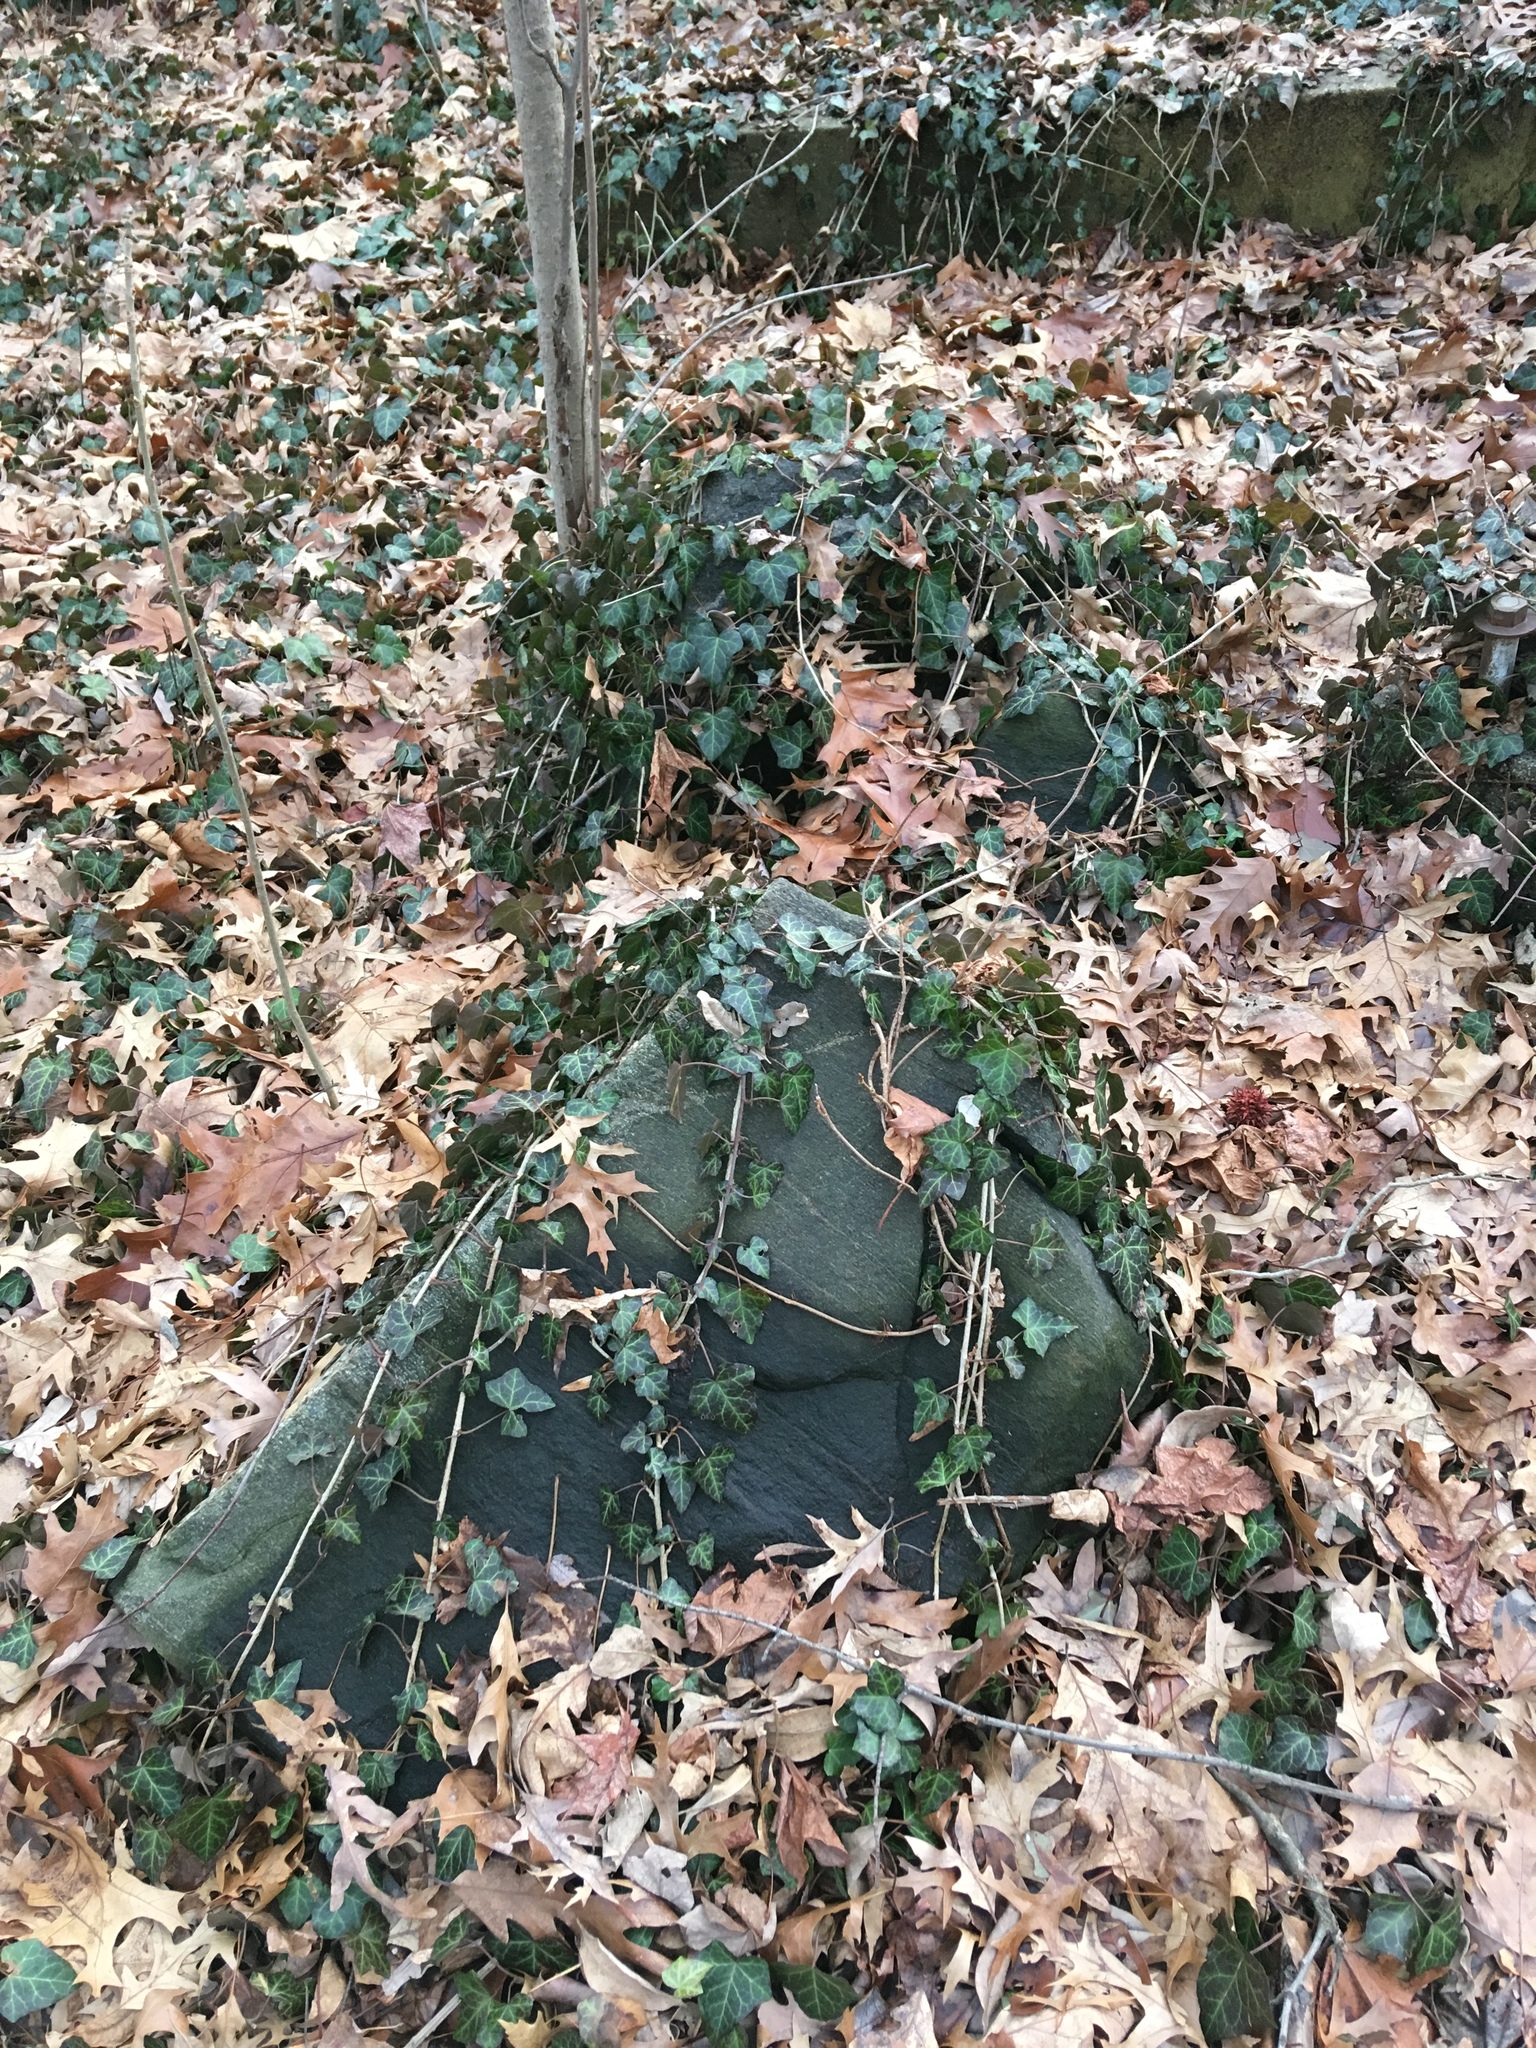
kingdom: Plantae
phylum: Tracheophyta
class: Magnoliopsida
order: Apiales
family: Araliaceae
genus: Hedera
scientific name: Hedera helix
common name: Ivy
